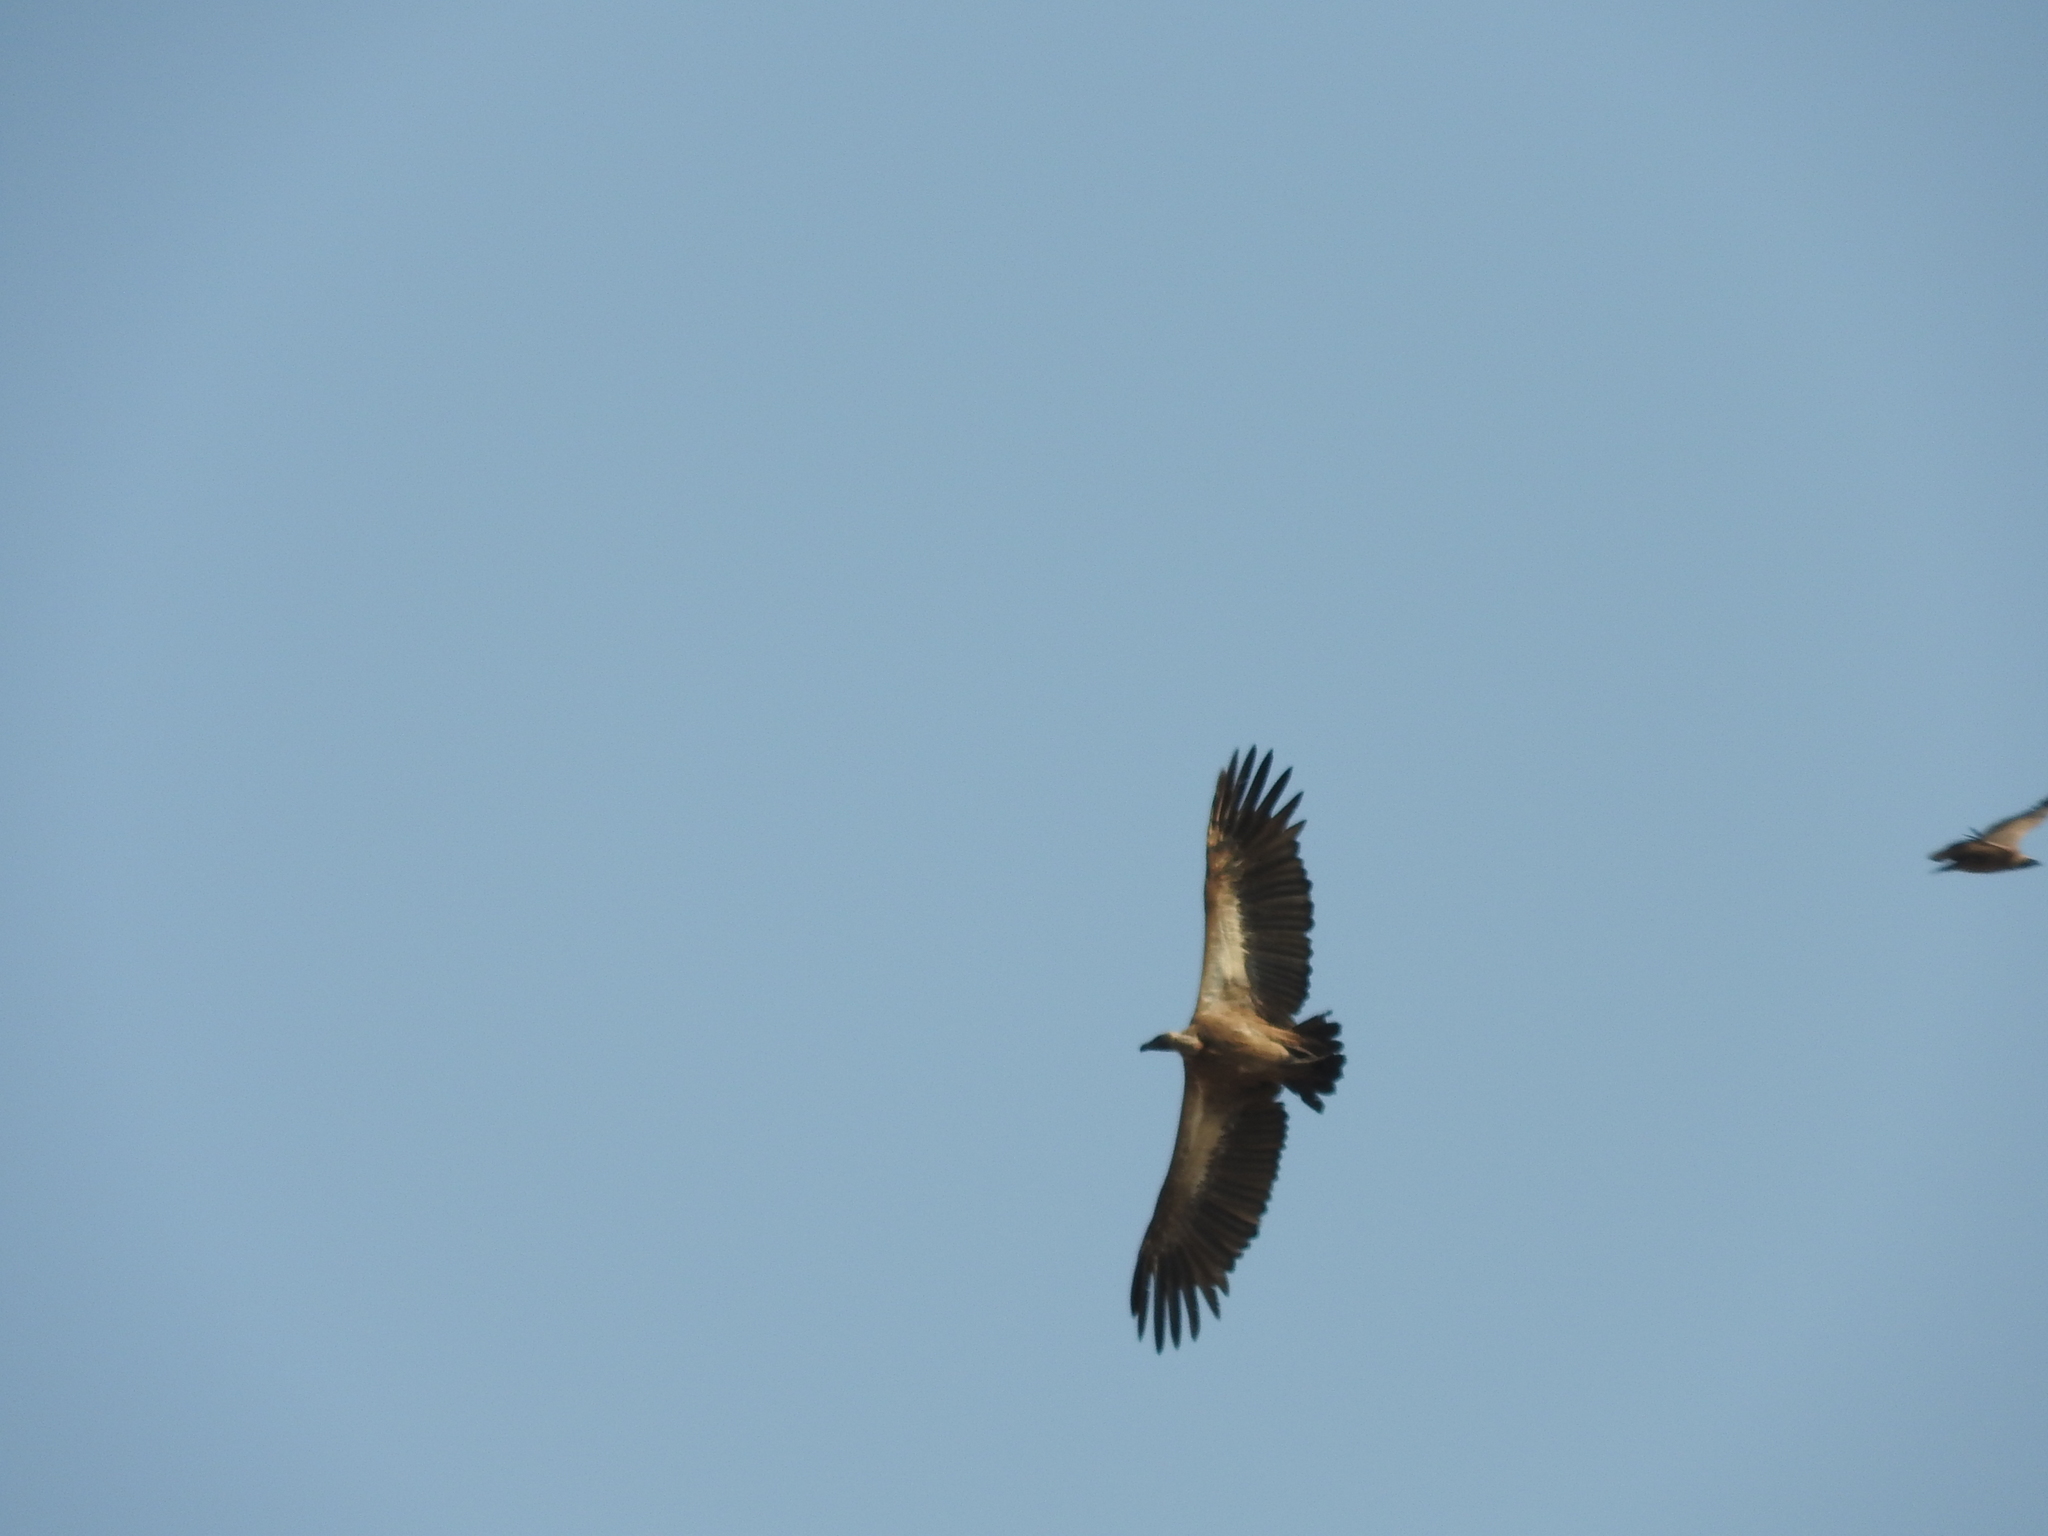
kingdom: Animalia
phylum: Chordata
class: Aves
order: Accipitriformes
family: Accipitridae
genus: Gyps
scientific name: Gyps africanus
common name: White-backed vulture
